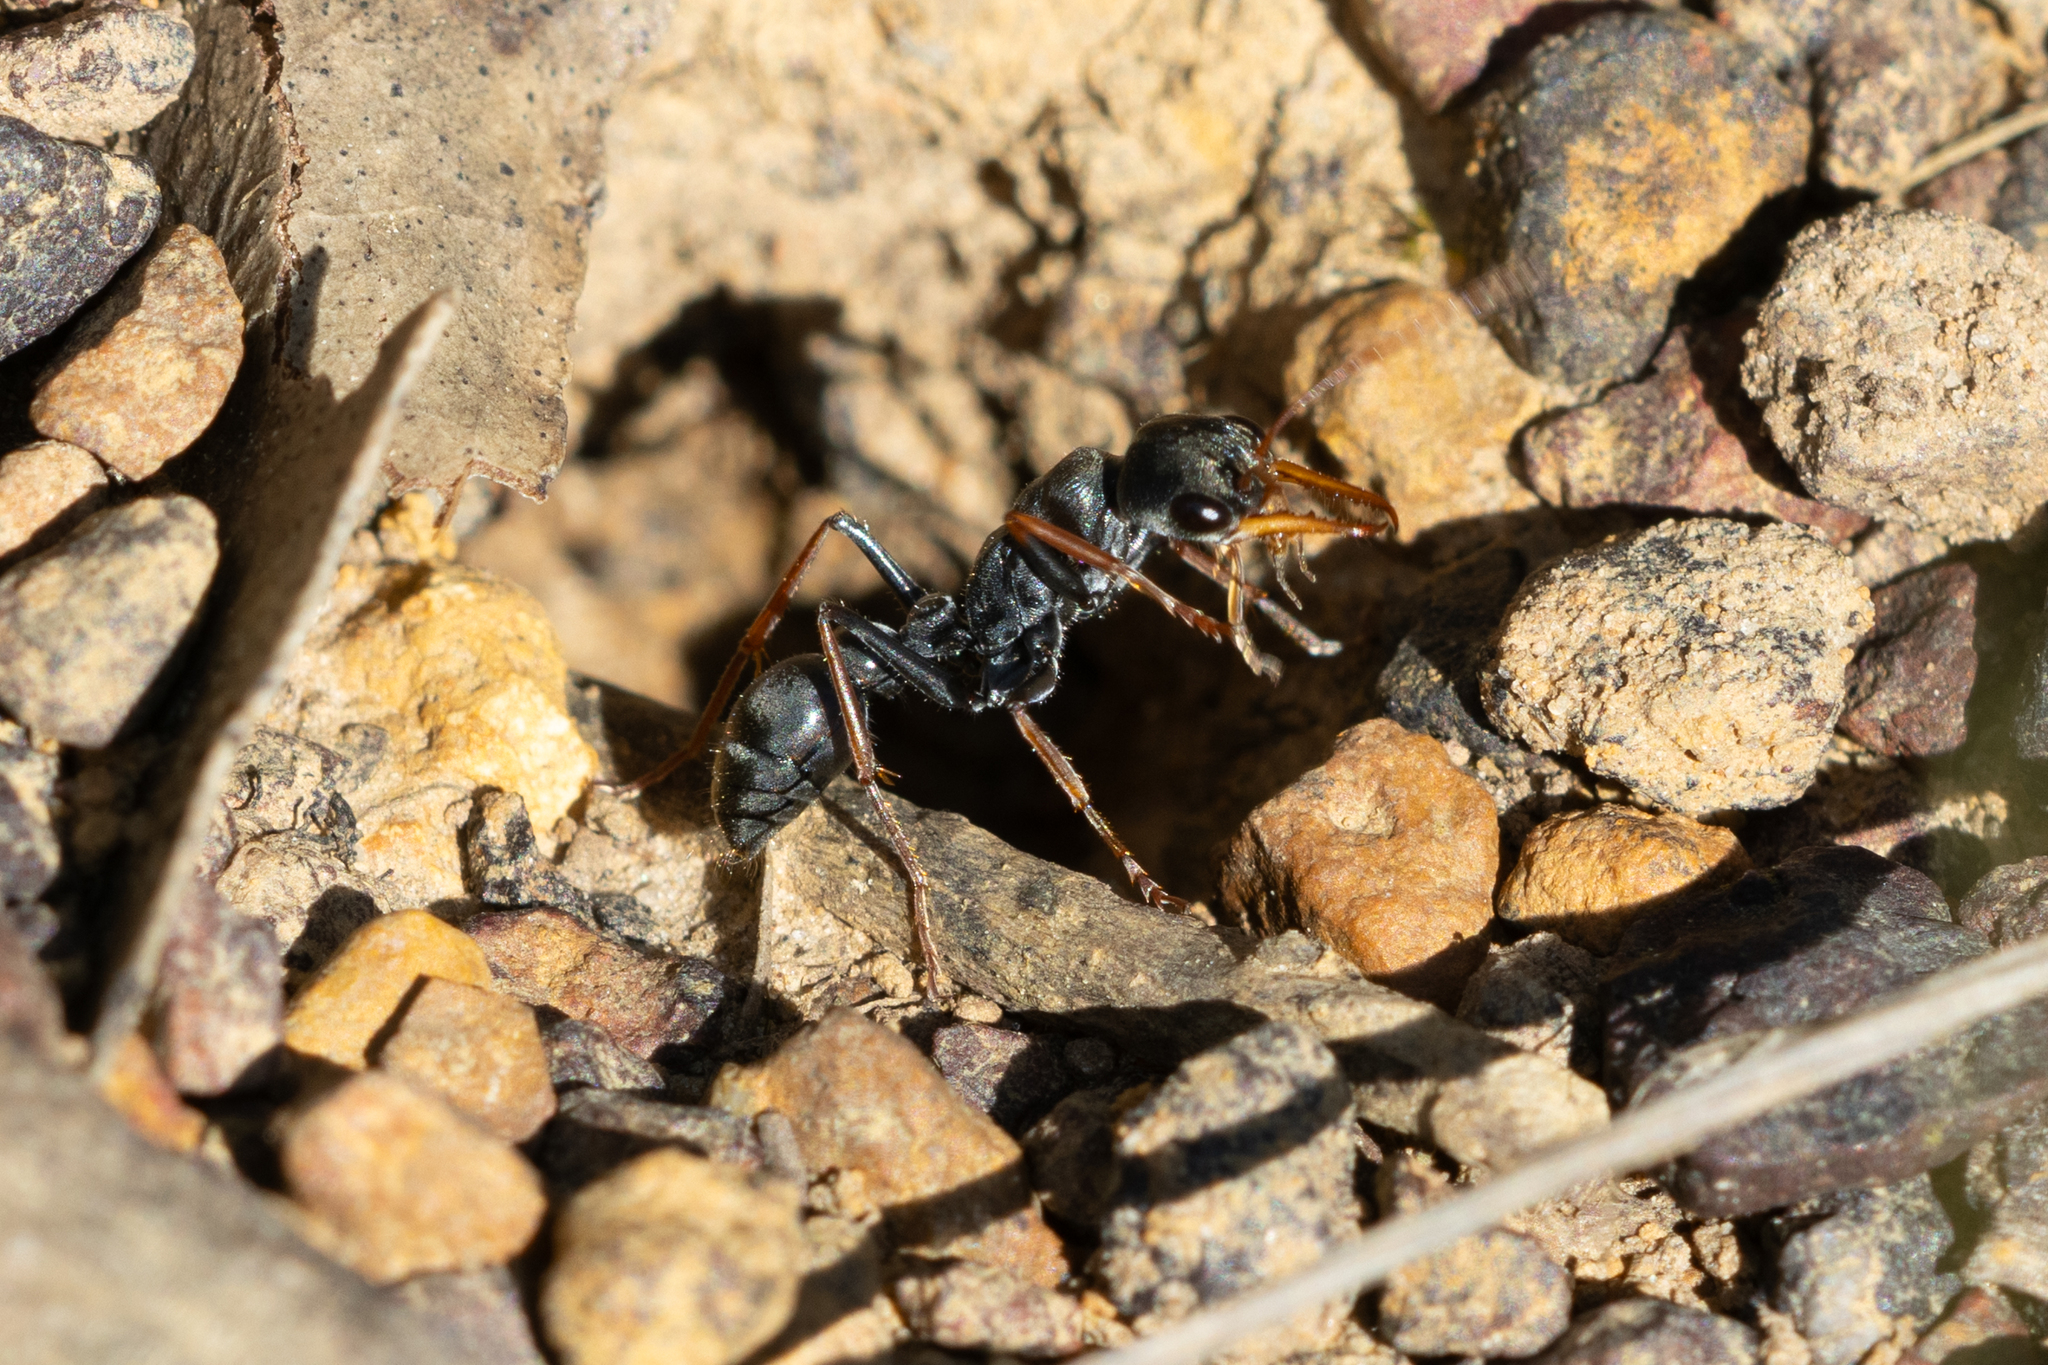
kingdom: Animalia
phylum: Arthropoda
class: Insecta
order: Hymenoptera
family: Formicidae
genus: Myrmecia
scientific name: Myrmecia pilosula
